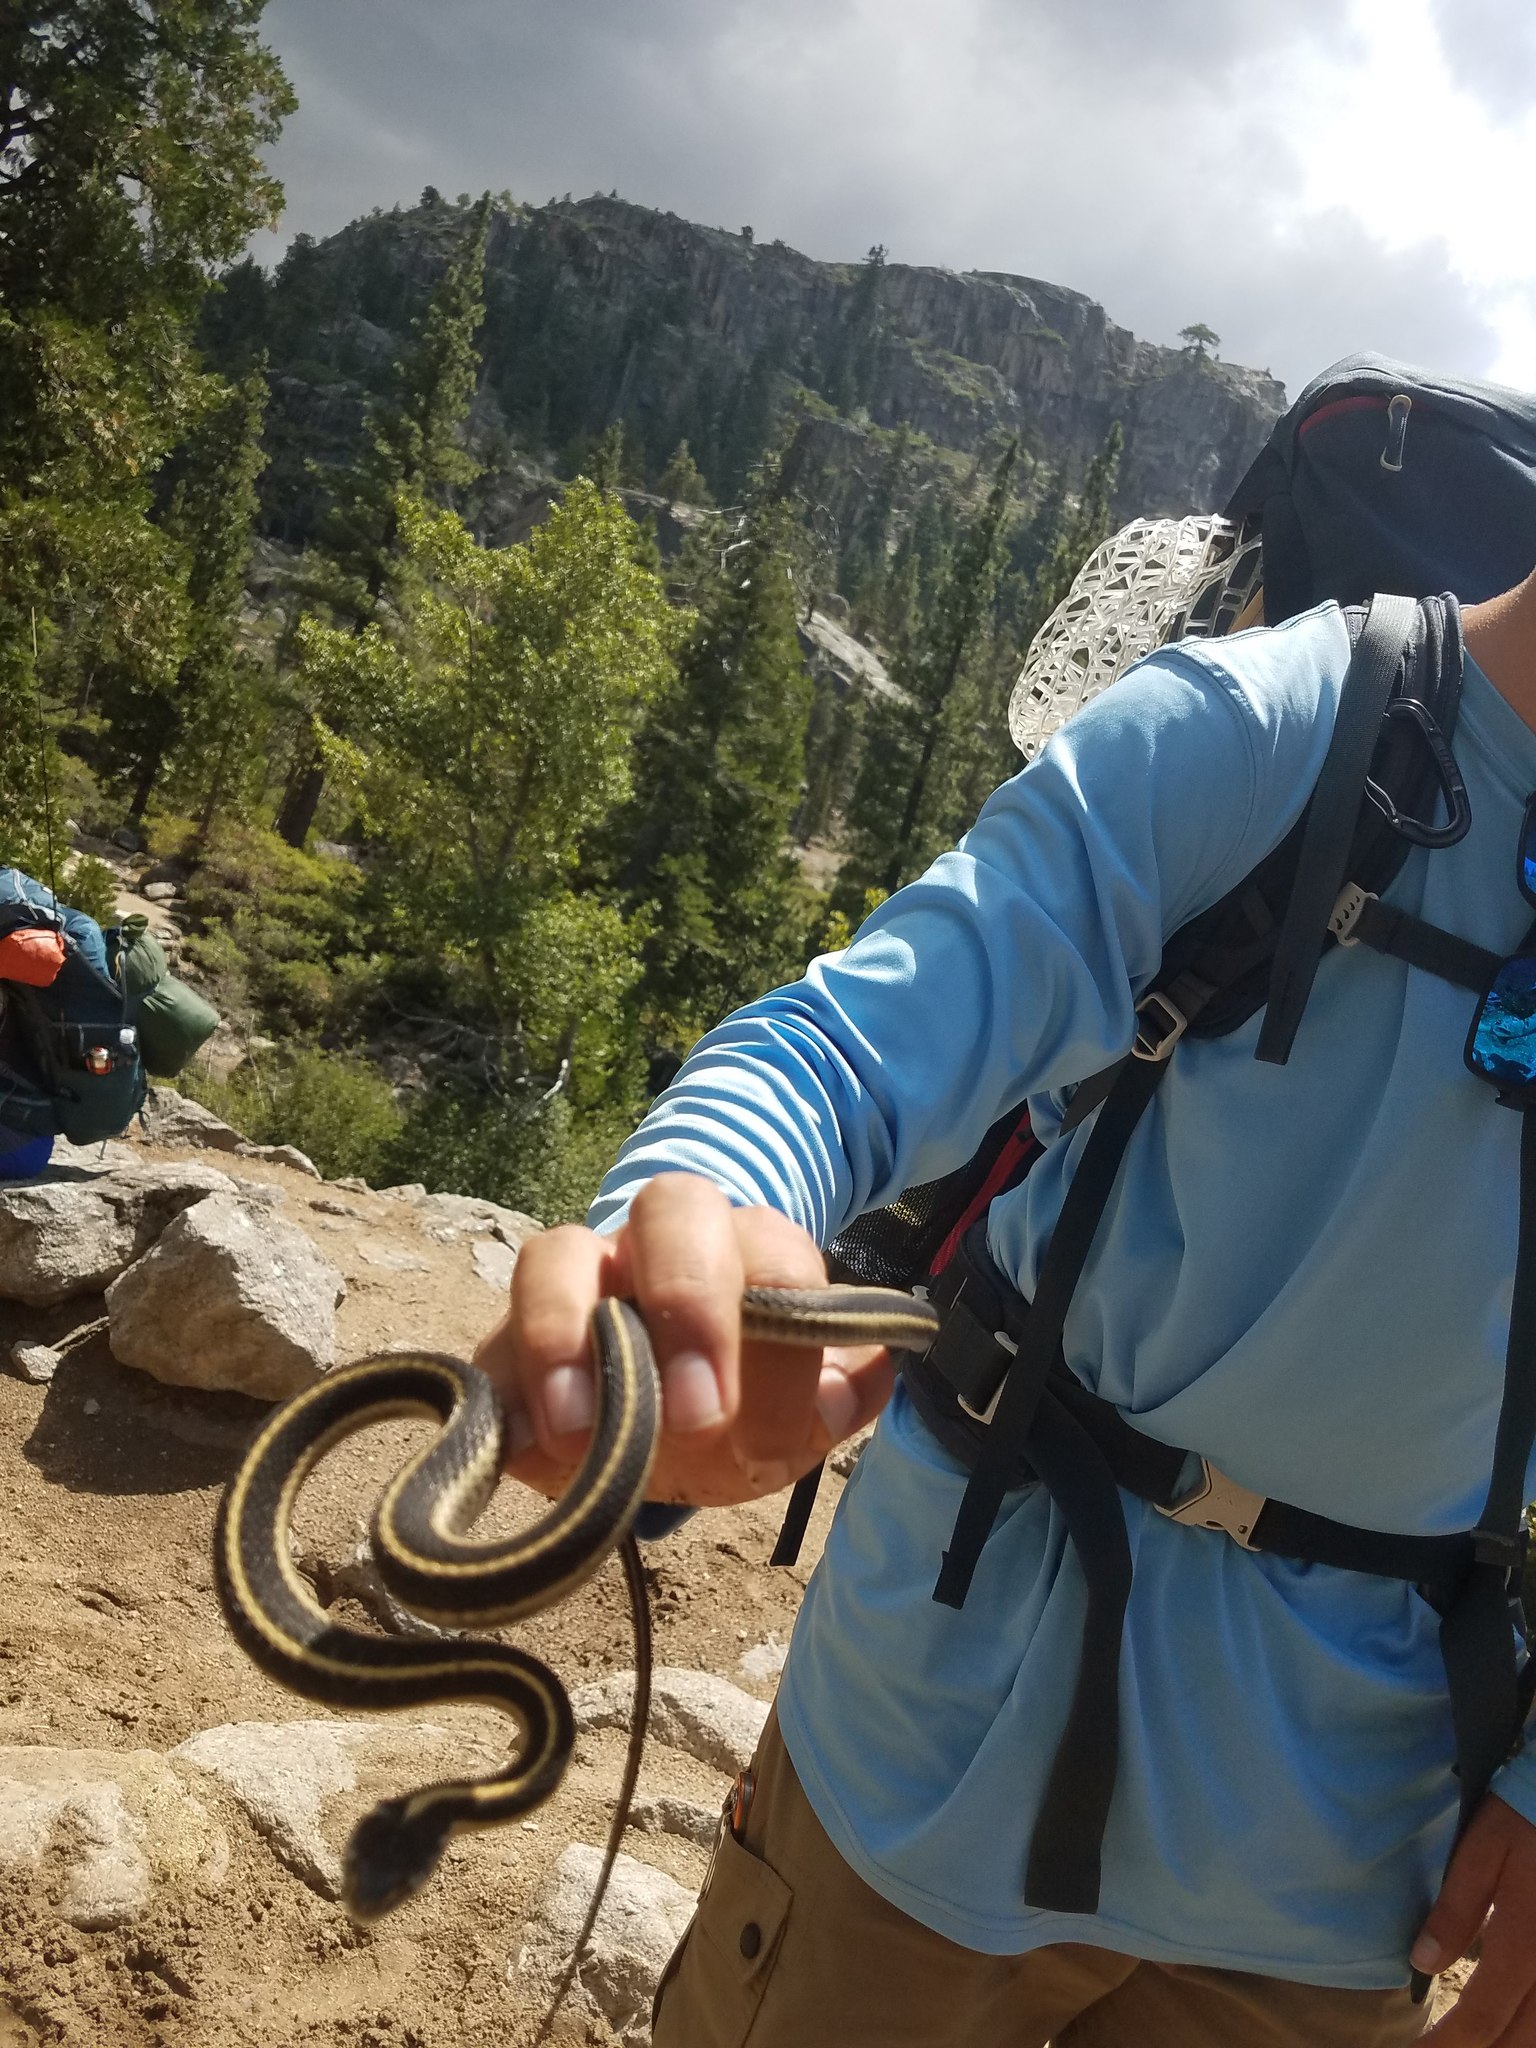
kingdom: Animalia
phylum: Chordata
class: Squamata
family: Colubridae
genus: Thamnophis
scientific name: Thamnophis elegans
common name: Western terrestrial garter snake
